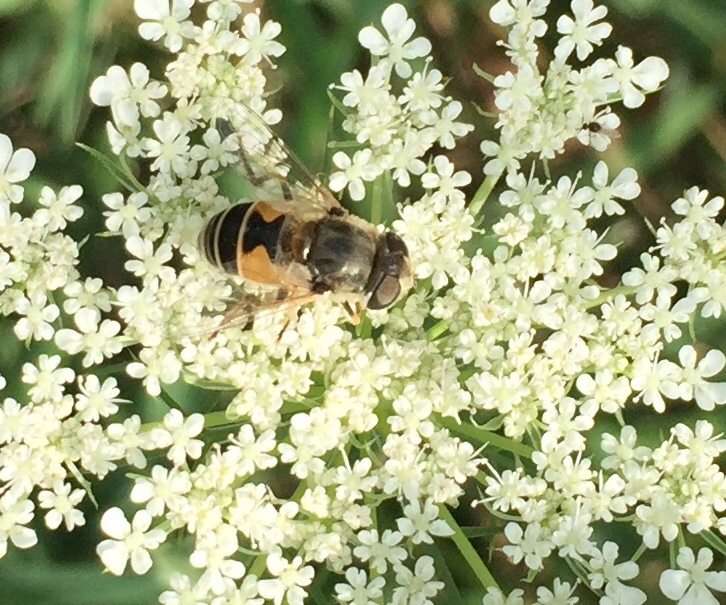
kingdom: Animalia
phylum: Arthropoda
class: Insecta
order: Diptera
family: Syrphidae
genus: Eristalis
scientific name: Eristalis arbustorum
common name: Hover fly
